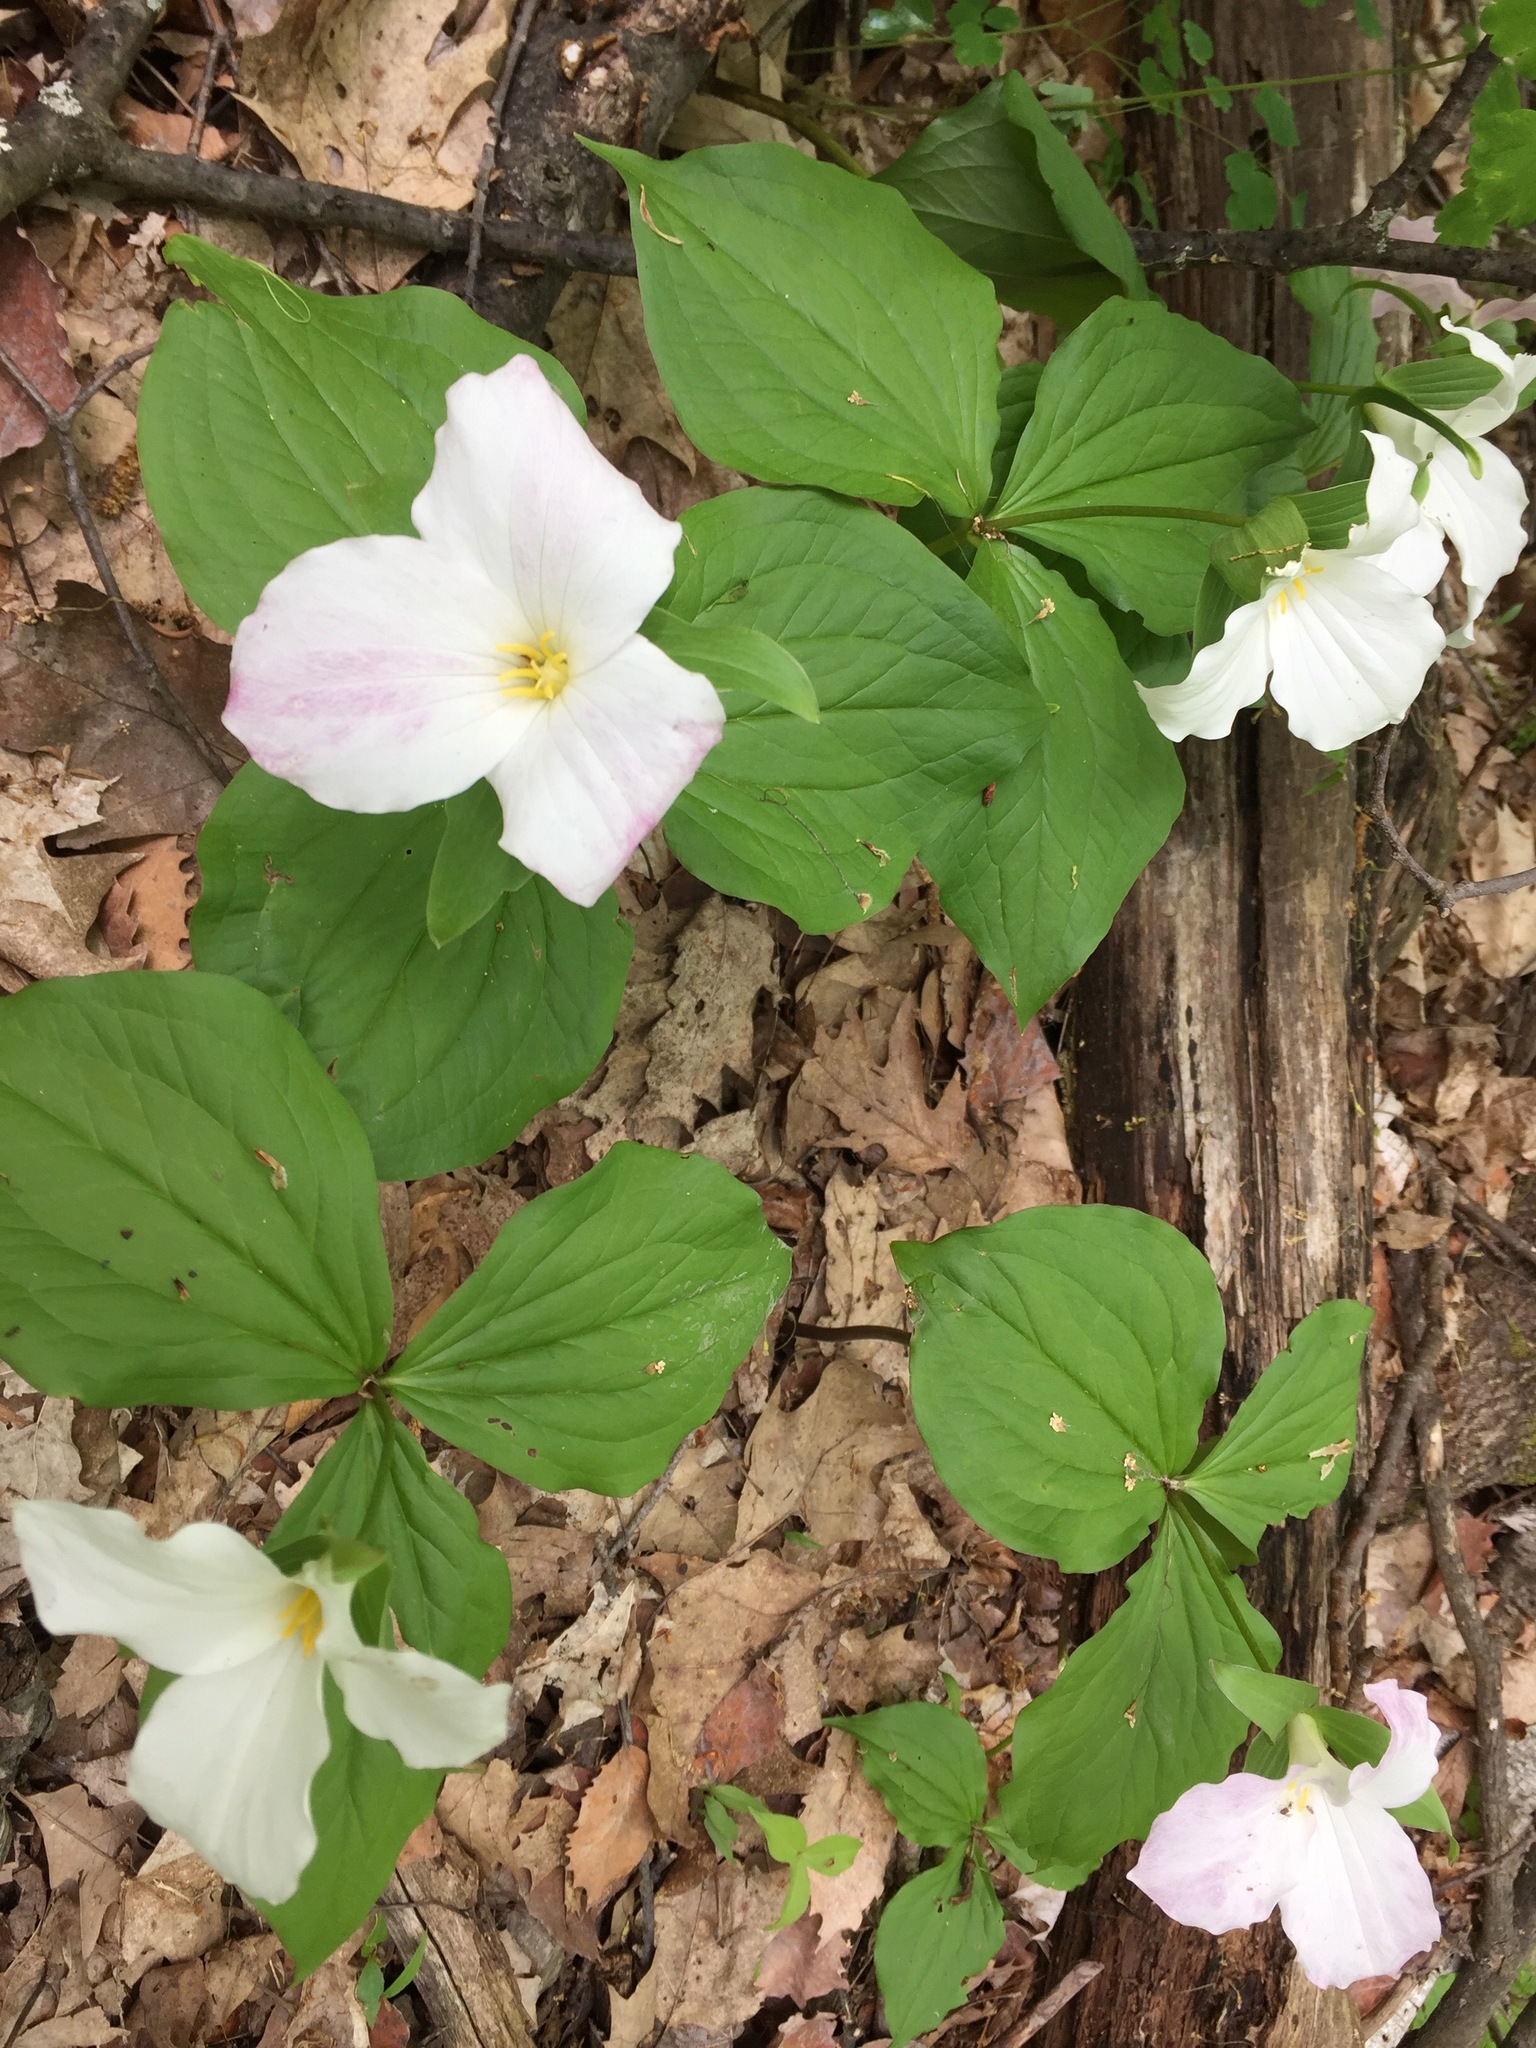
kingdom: Plantae
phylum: Tracheophyta
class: Liliopsida
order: Liliales
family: Melanthiaceae
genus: Trillium
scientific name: Trillium grandiflorum
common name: Great white trillium
